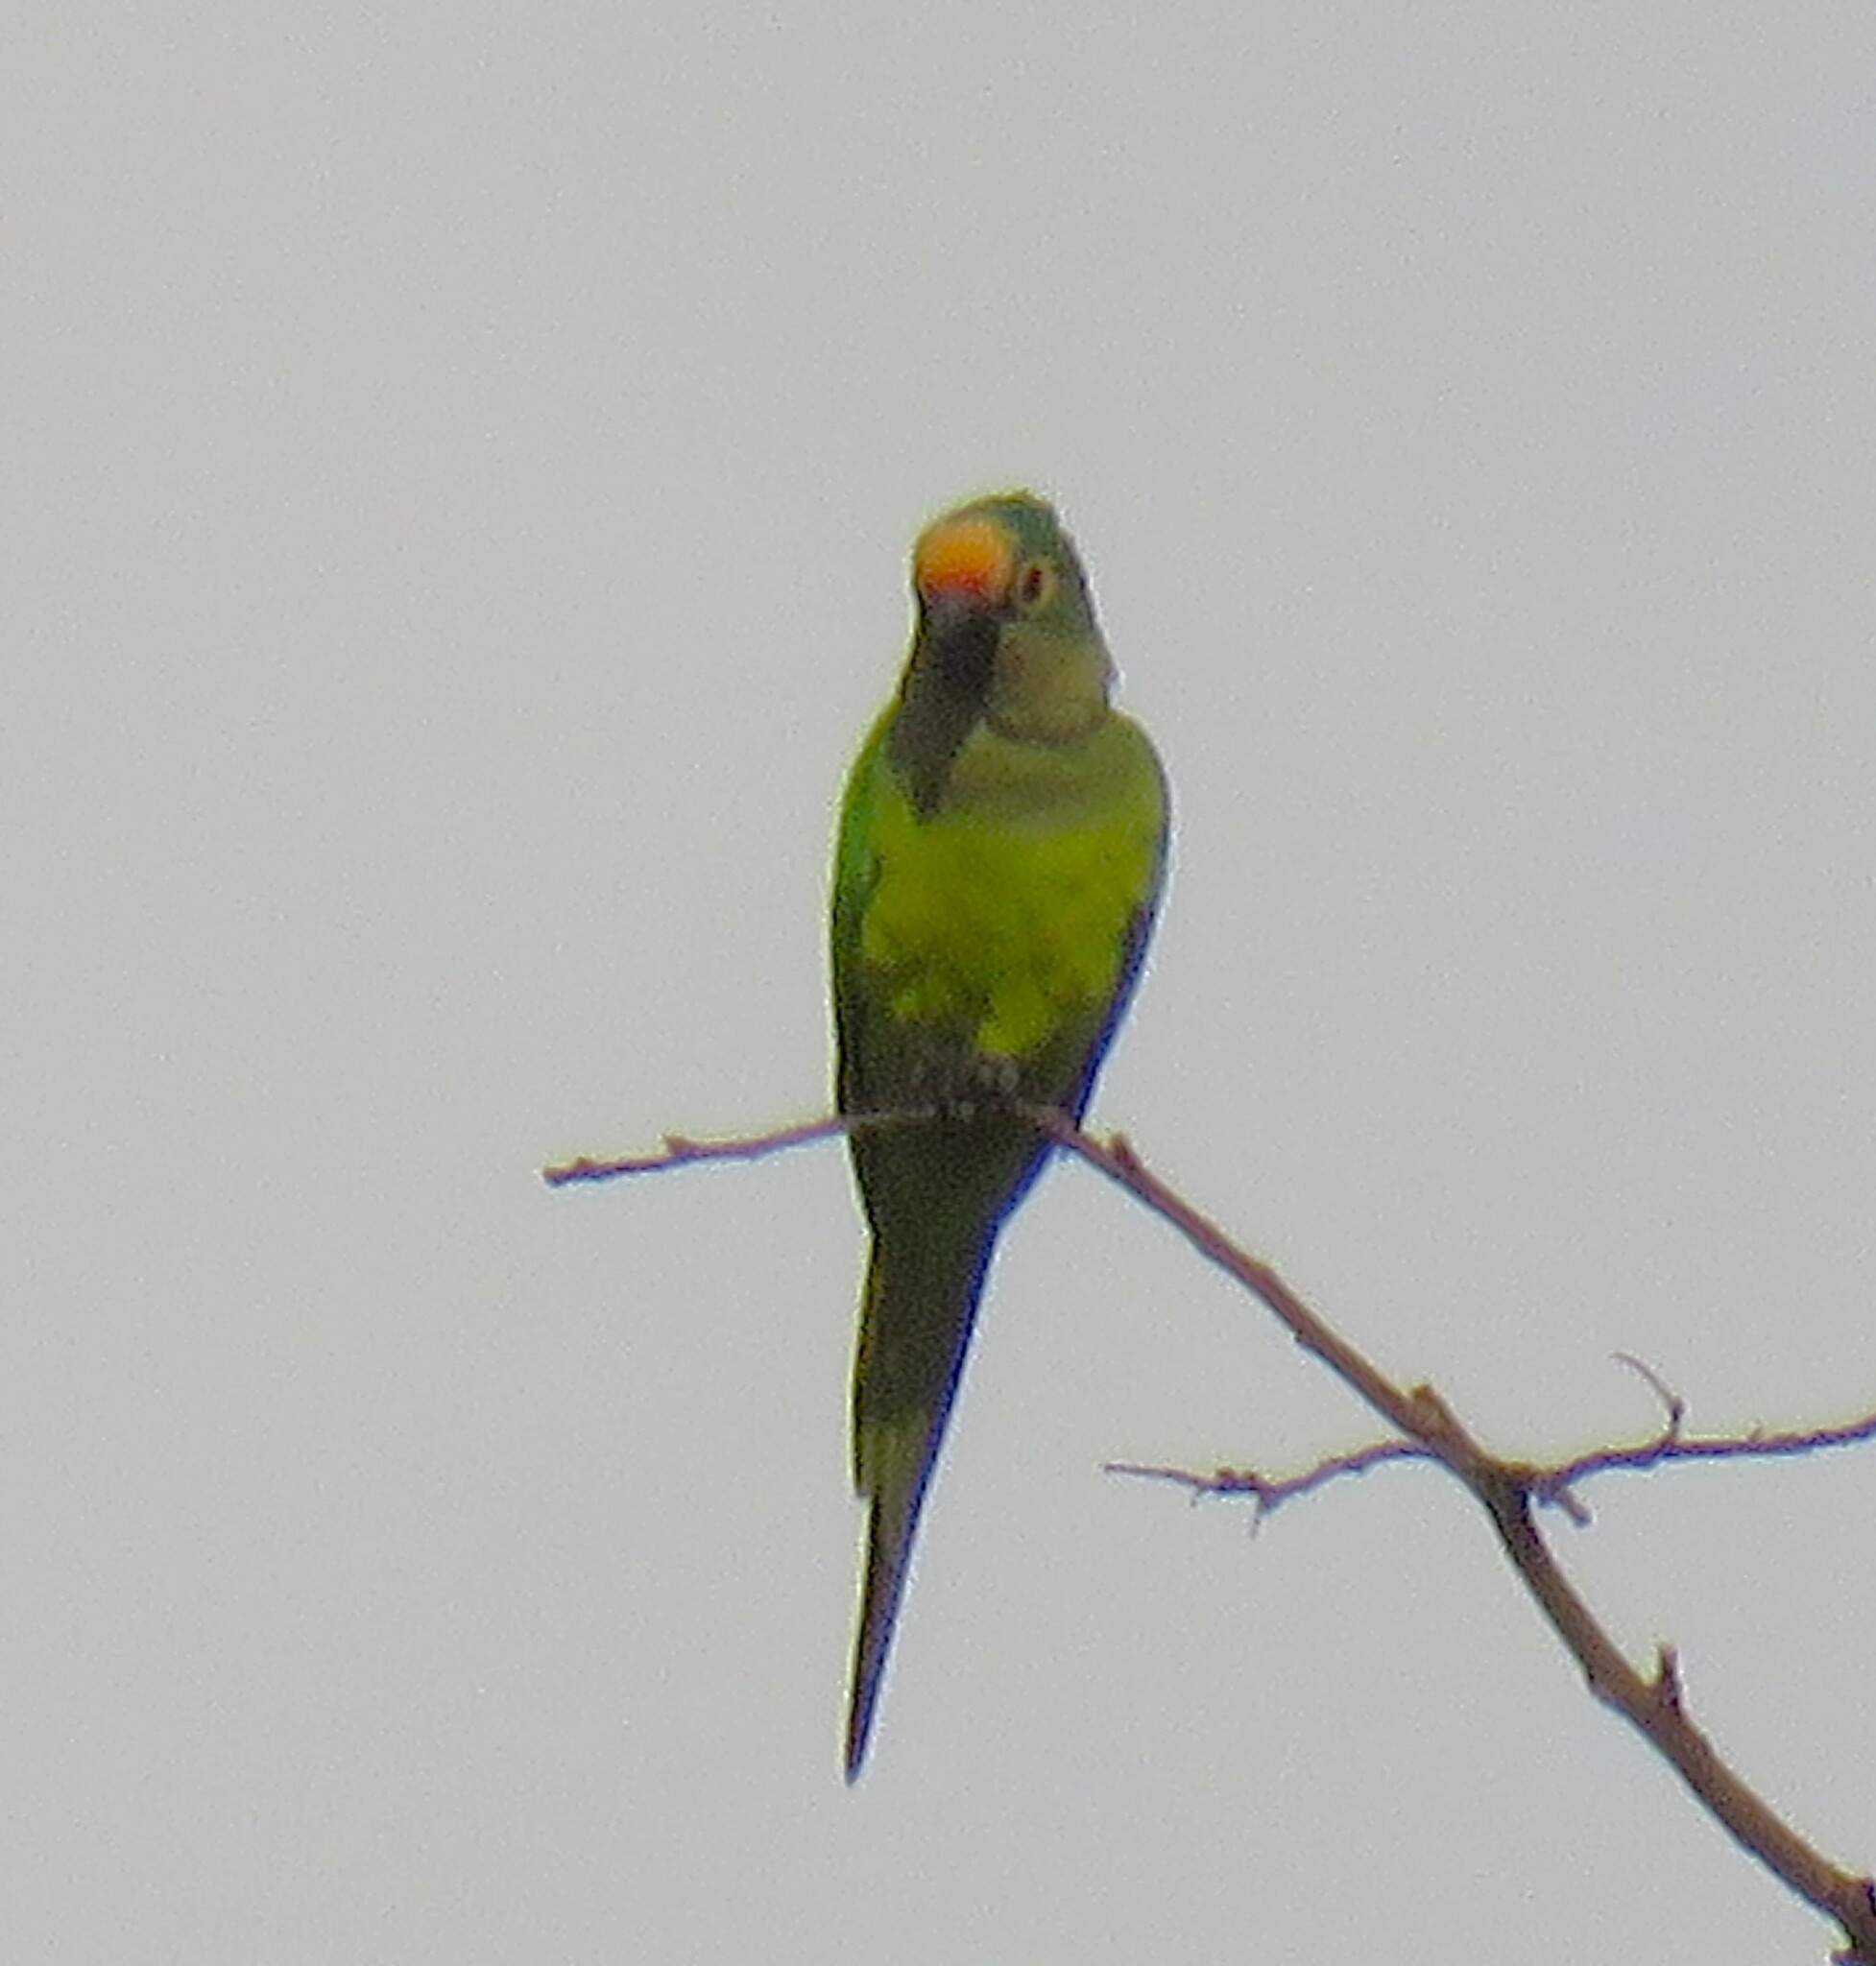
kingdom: Animalia
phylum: Chordata
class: Aves
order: Psittaciformes
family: Psittacidae
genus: Aratinga
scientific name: Aratinga aurea
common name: Peach-fronted parakeet
